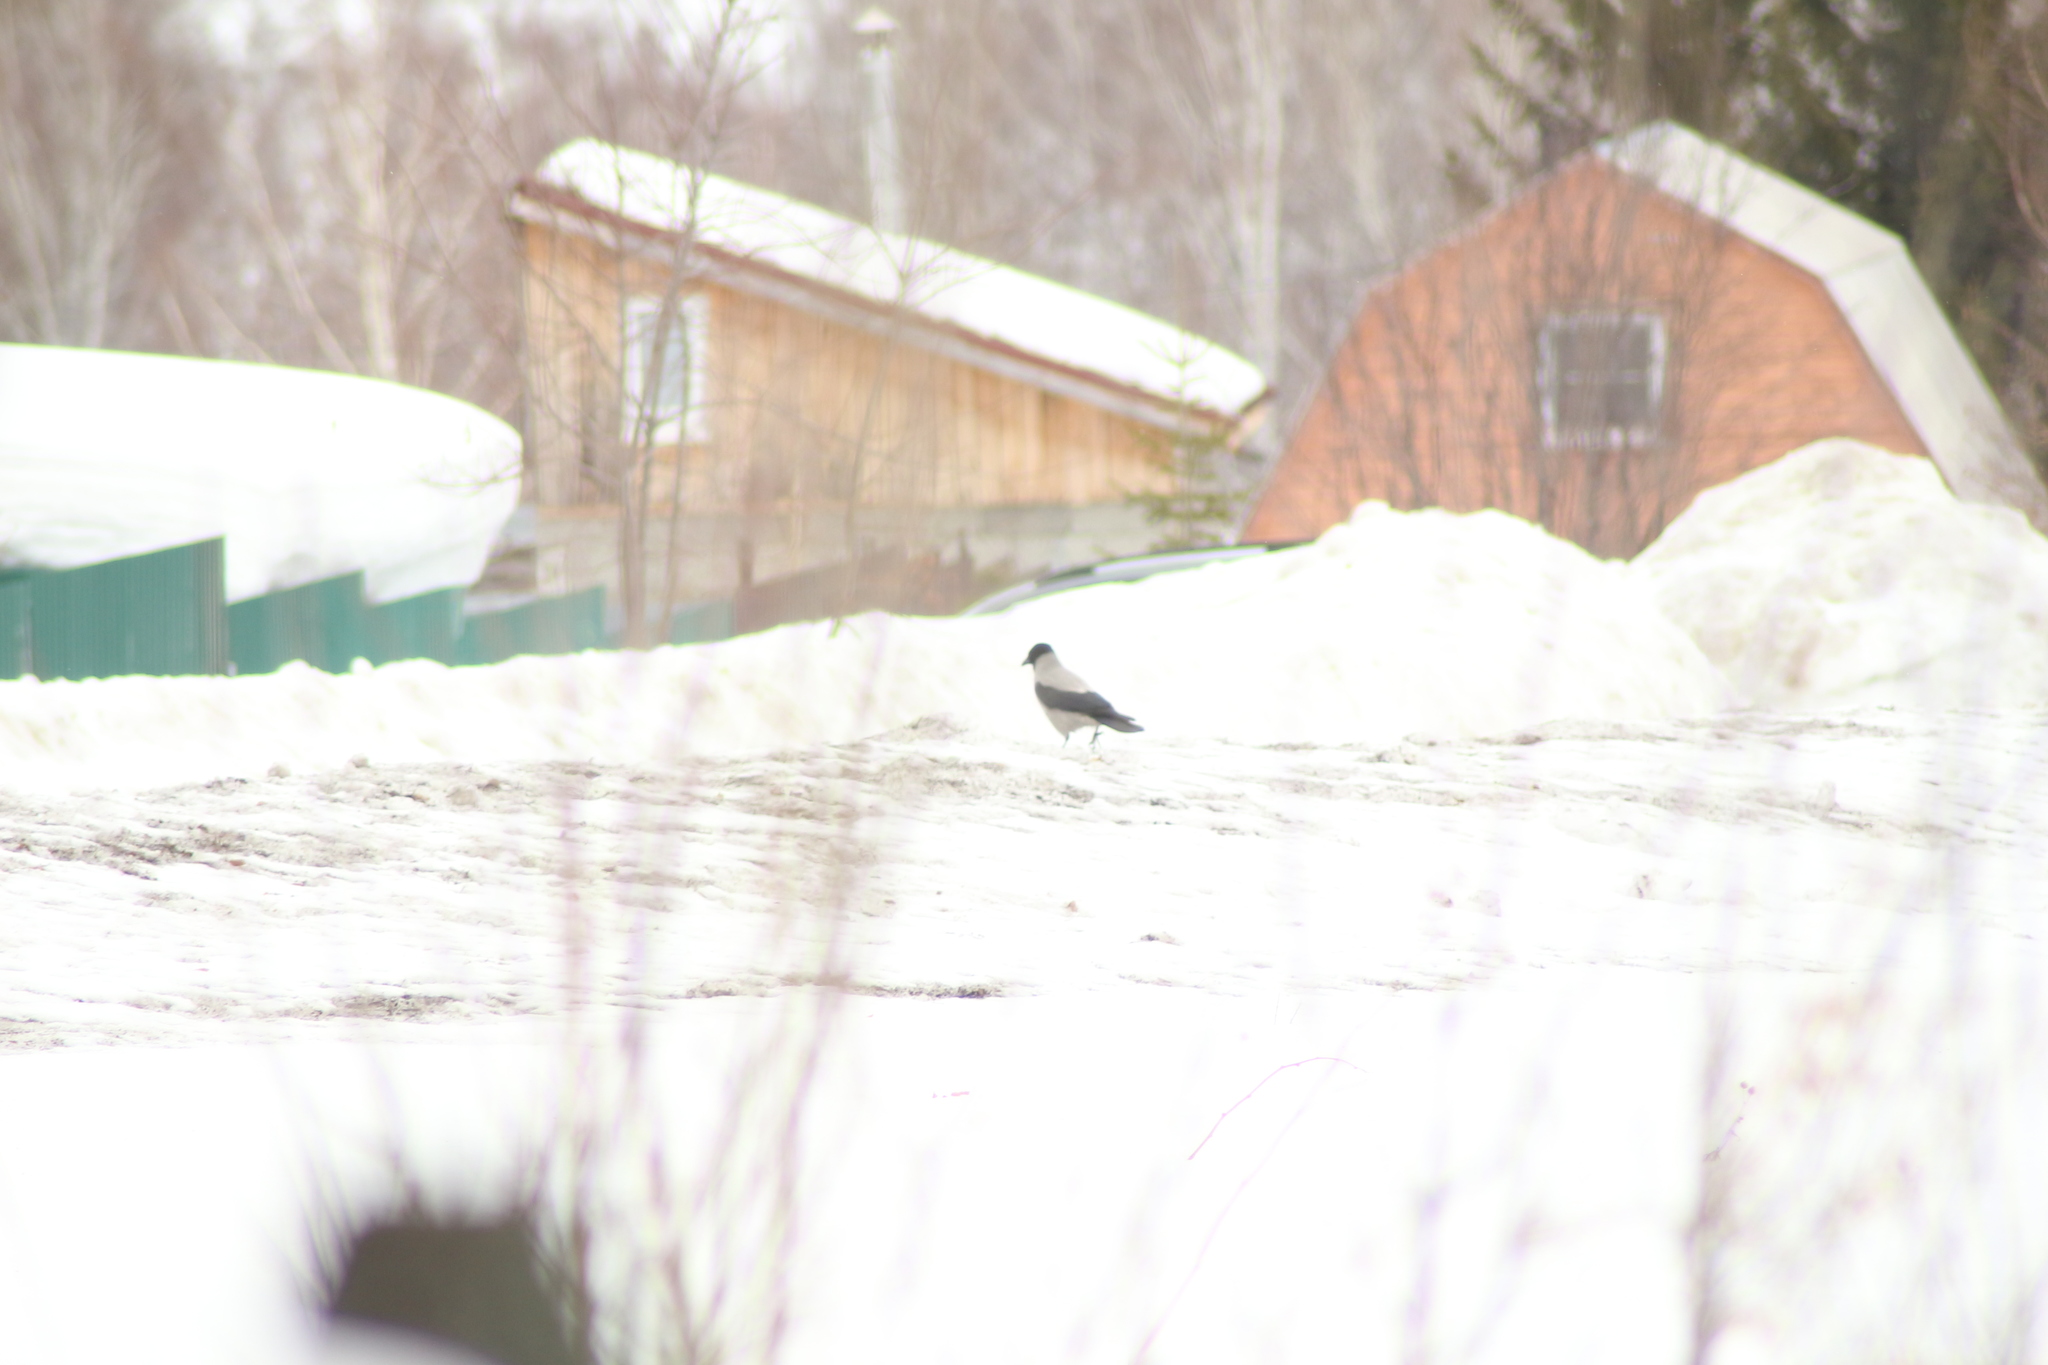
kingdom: Animalia
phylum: Chordata
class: Aves
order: Passeriformes
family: Corvidae
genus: Corvus
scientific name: Corvus cornix
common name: Hooded crow
